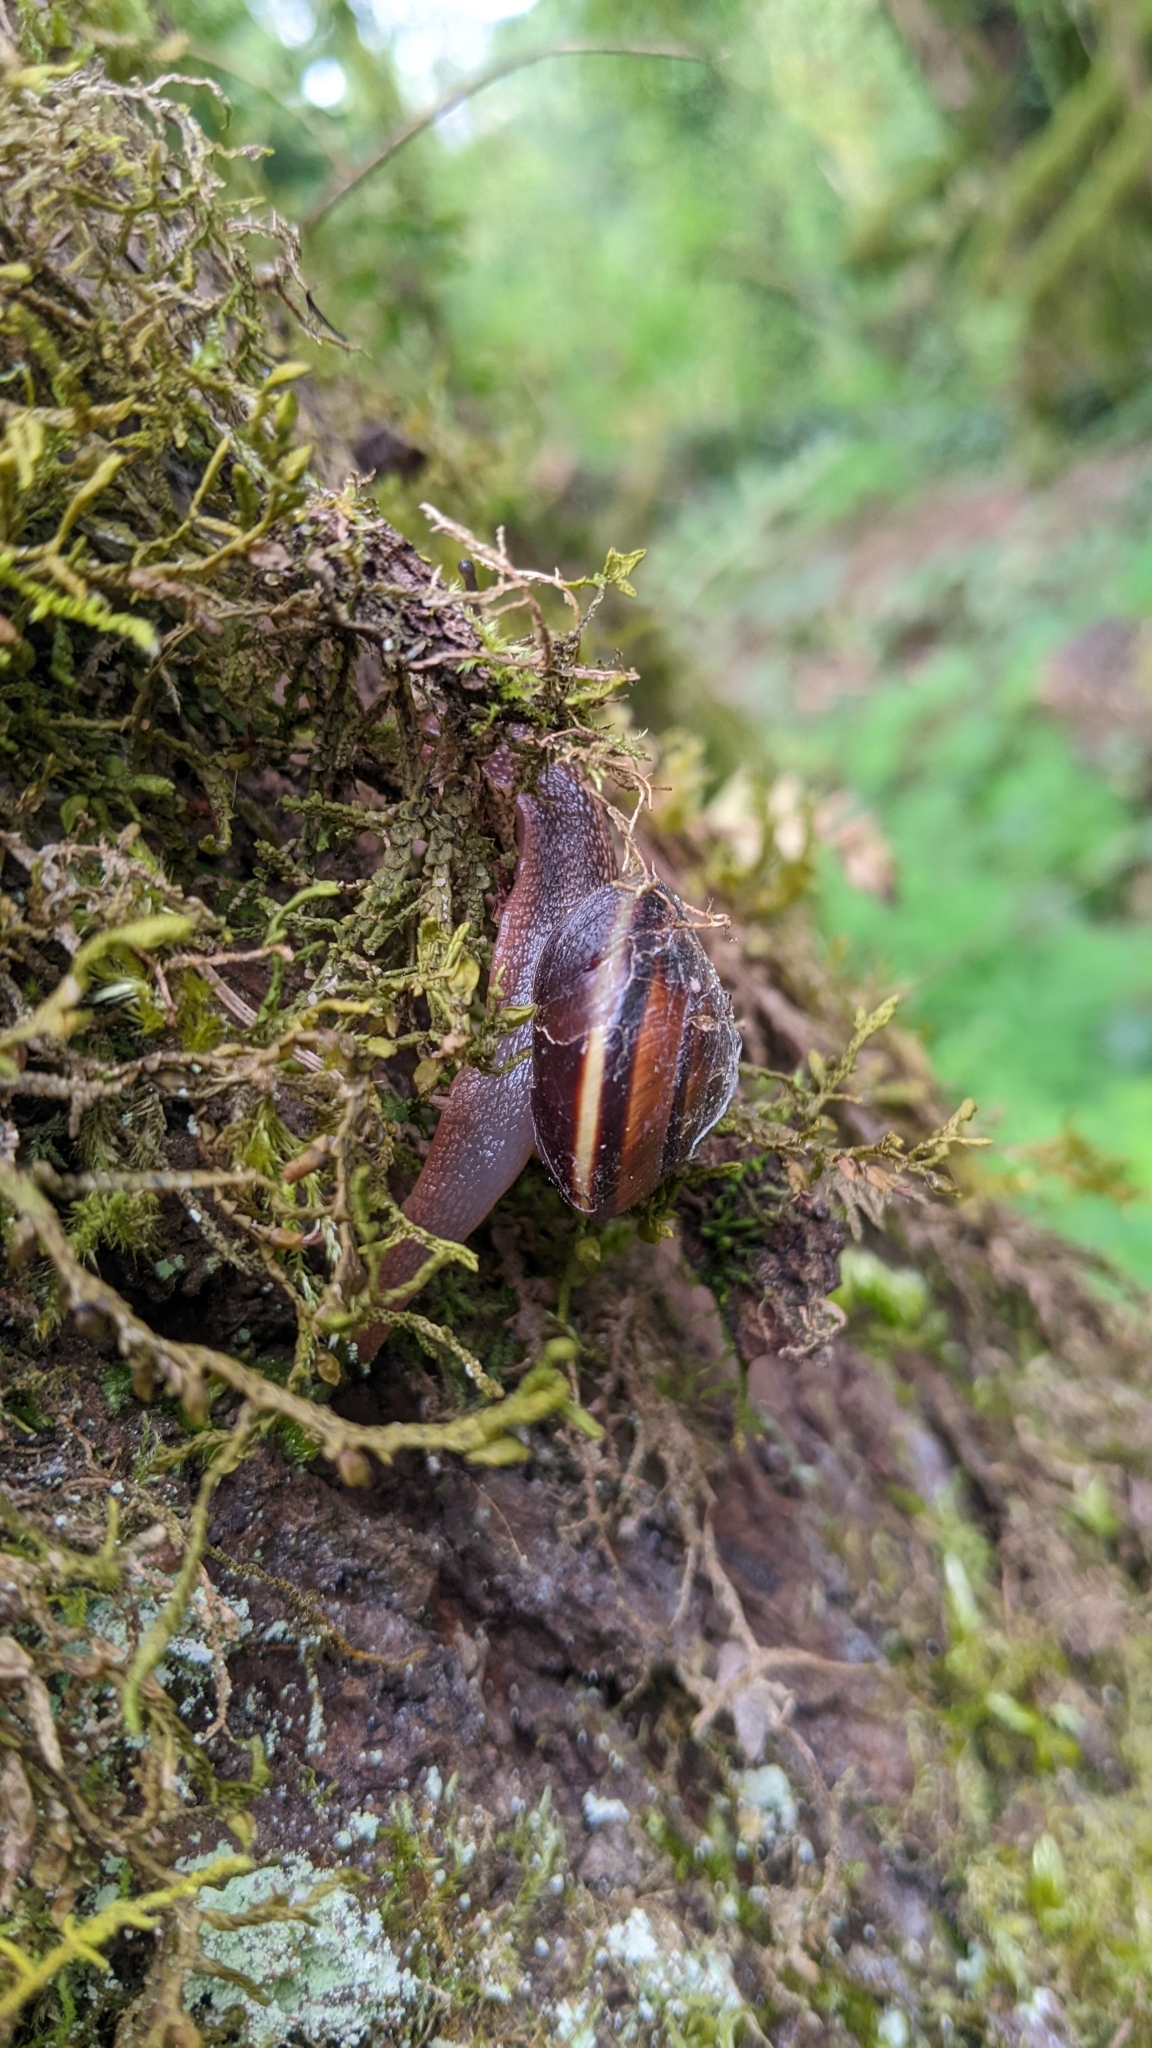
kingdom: Animalia
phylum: Mollusca
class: Gastropoda
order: Stylommatophora
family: Xanthonychidae
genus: Monadenia
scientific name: Monadenia fidelis
